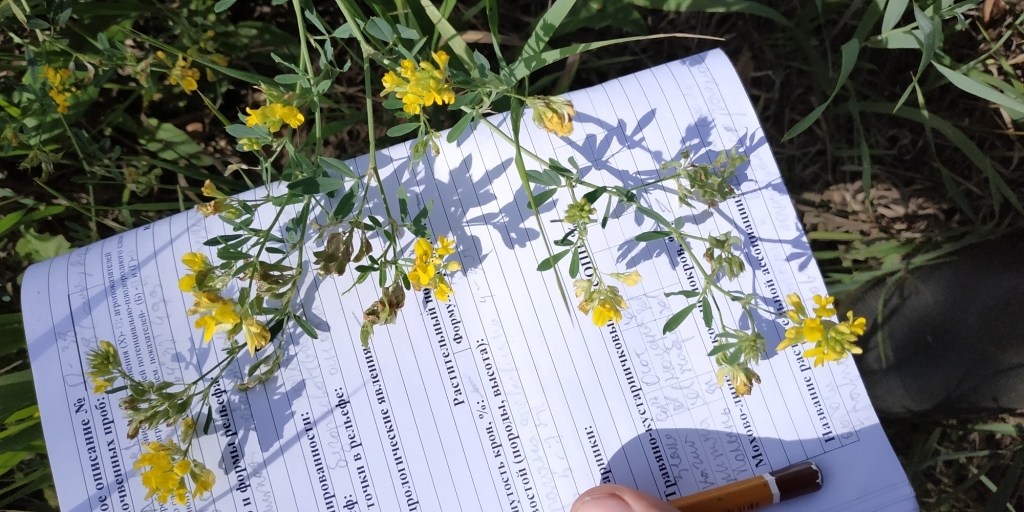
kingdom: Plantae
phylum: Tracheophyta
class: Magnoliopsida
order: Fabales
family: Fabaceae
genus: Medicago
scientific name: Medicago falcata
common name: Sickle medick
